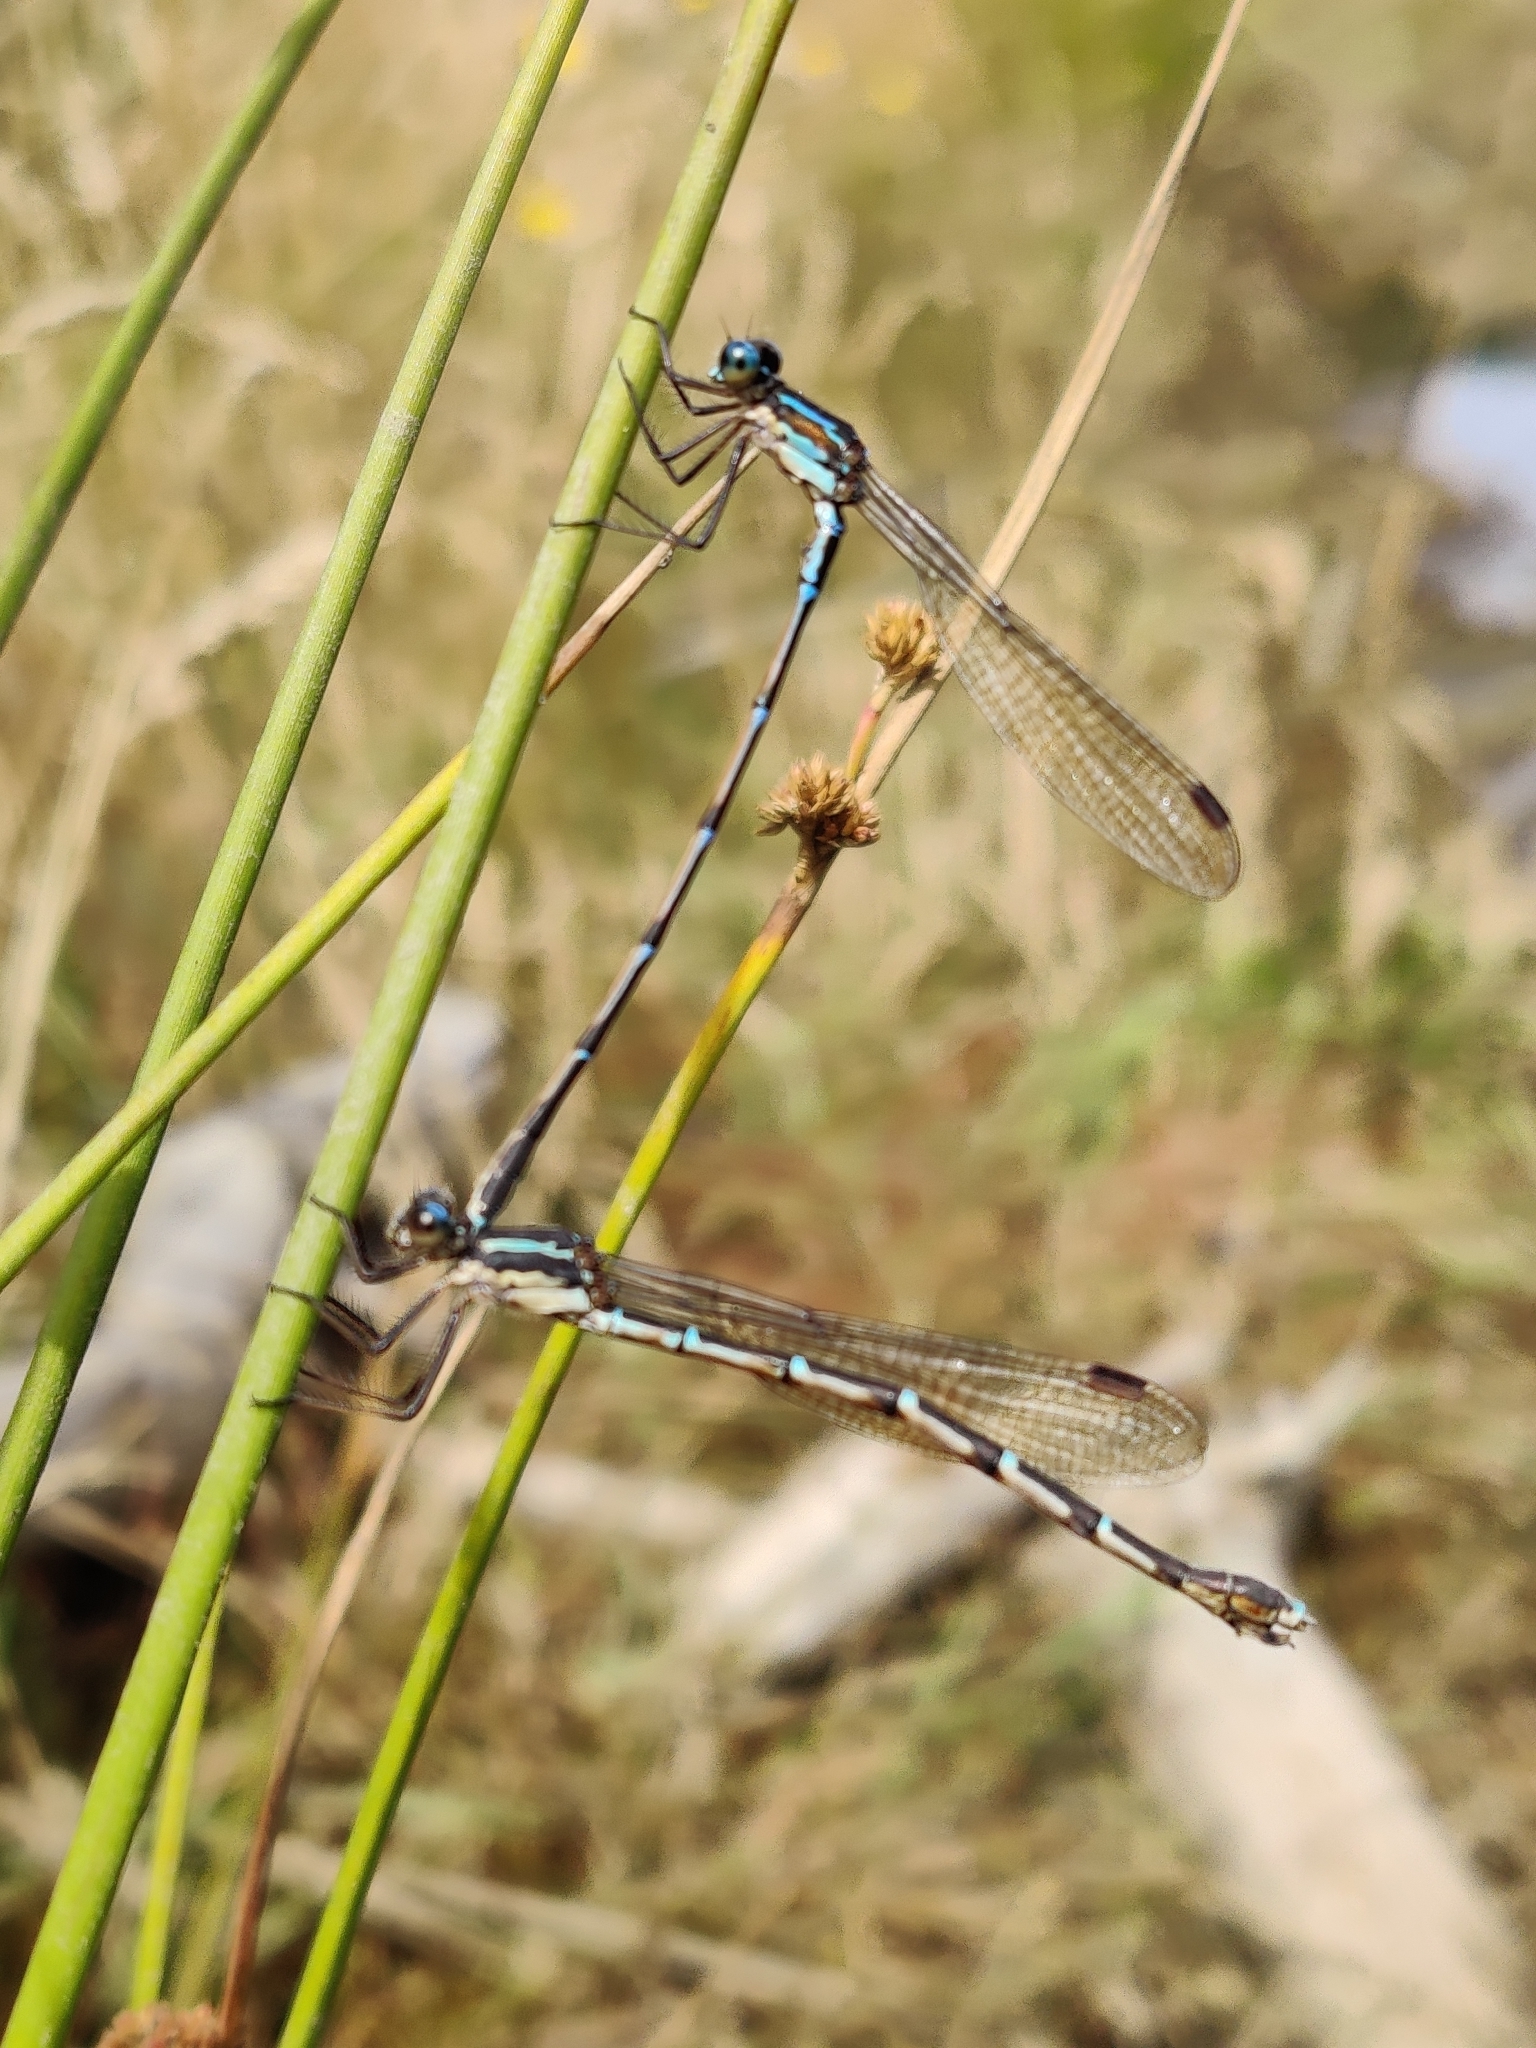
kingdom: Animalia
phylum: Arthropoda
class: Insecta
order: Odonata
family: Lestidae
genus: Austrolestes
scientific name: Austrolestes colensonis
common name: Blue damselfly
